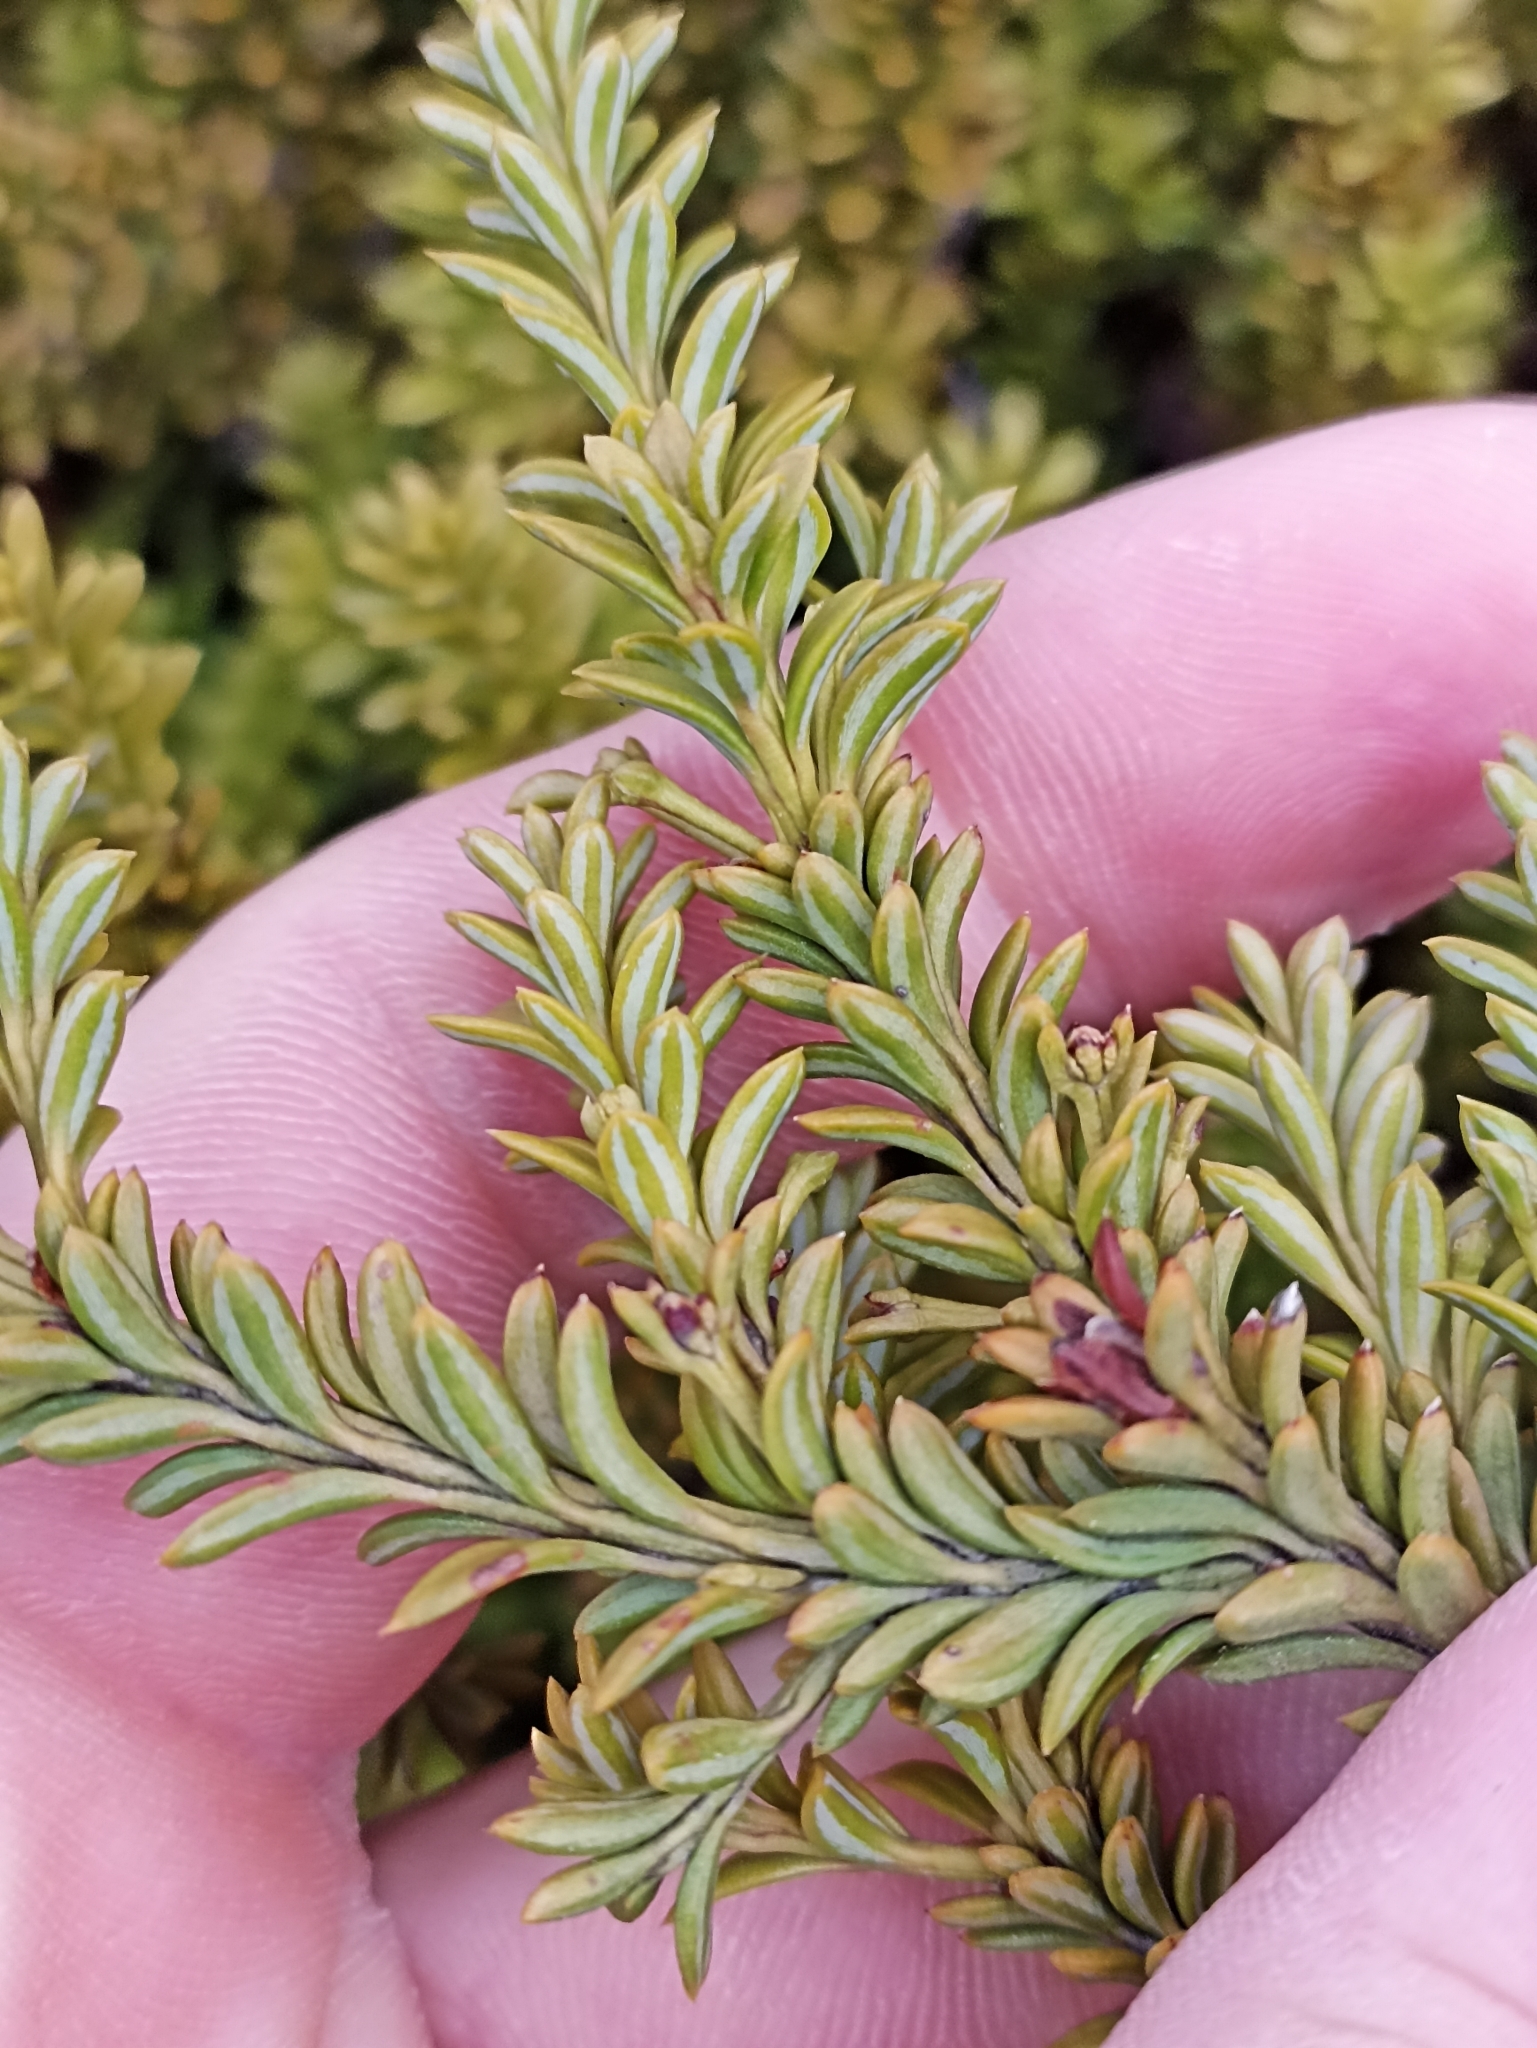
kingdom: Plantae
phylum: Tracheophyta
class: Pinopsida
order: Pinales
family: Podocarpaceae
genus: Podocarpus
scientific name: Podocarpus nivalis
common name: Alpine totara
